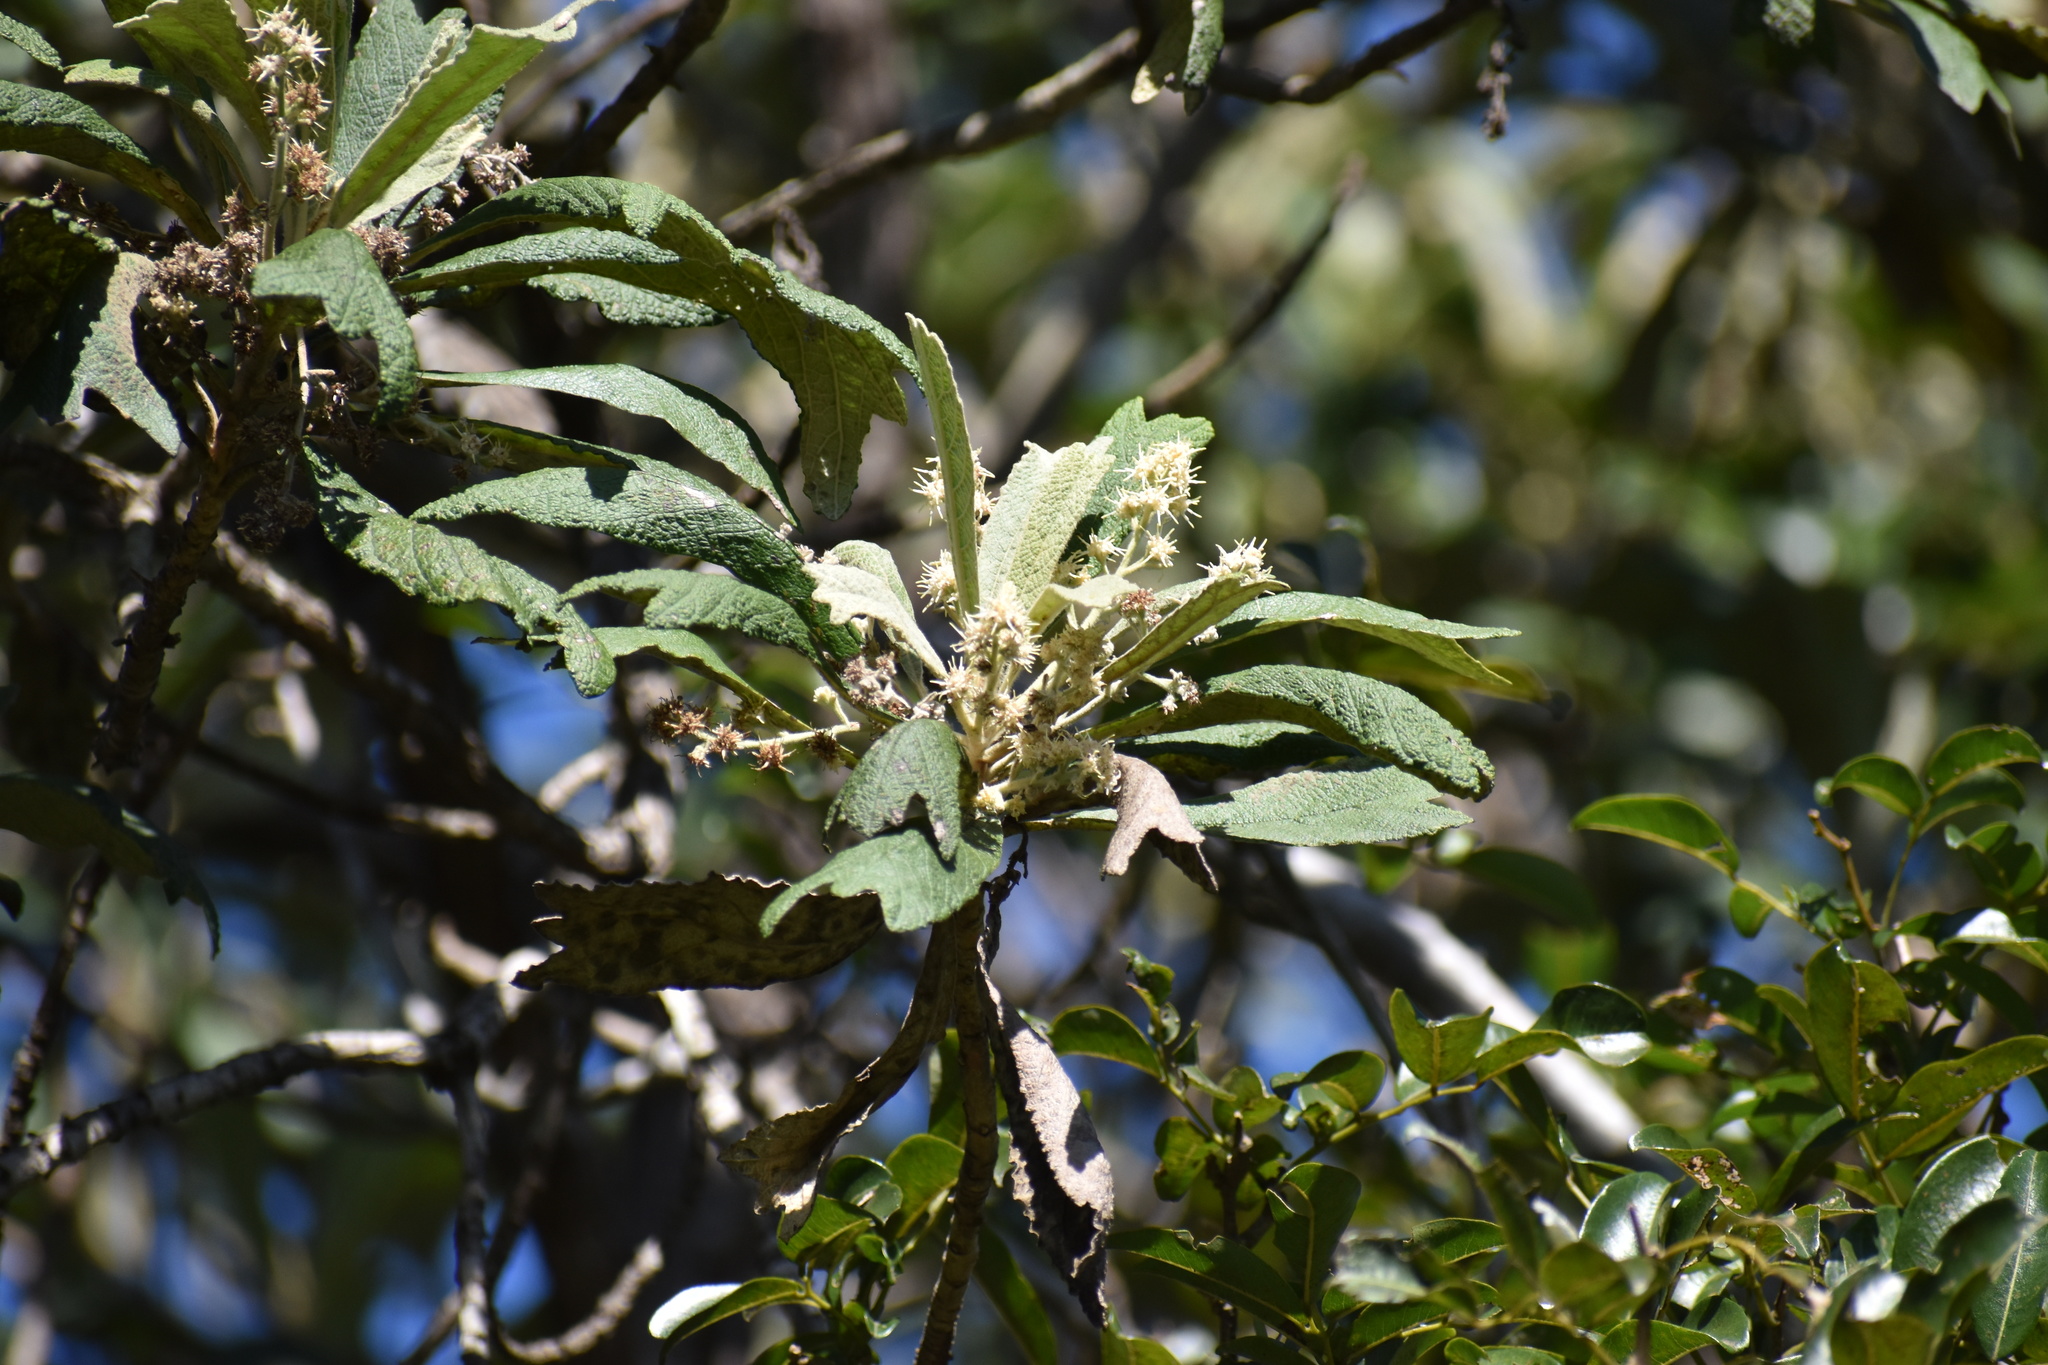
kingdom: Plantae
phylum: Tracheophyta
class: Magnoliopsida
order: Asterales
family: Asteraceae
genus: Tarchonanthus
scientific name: Tarchonanthus littoralis
